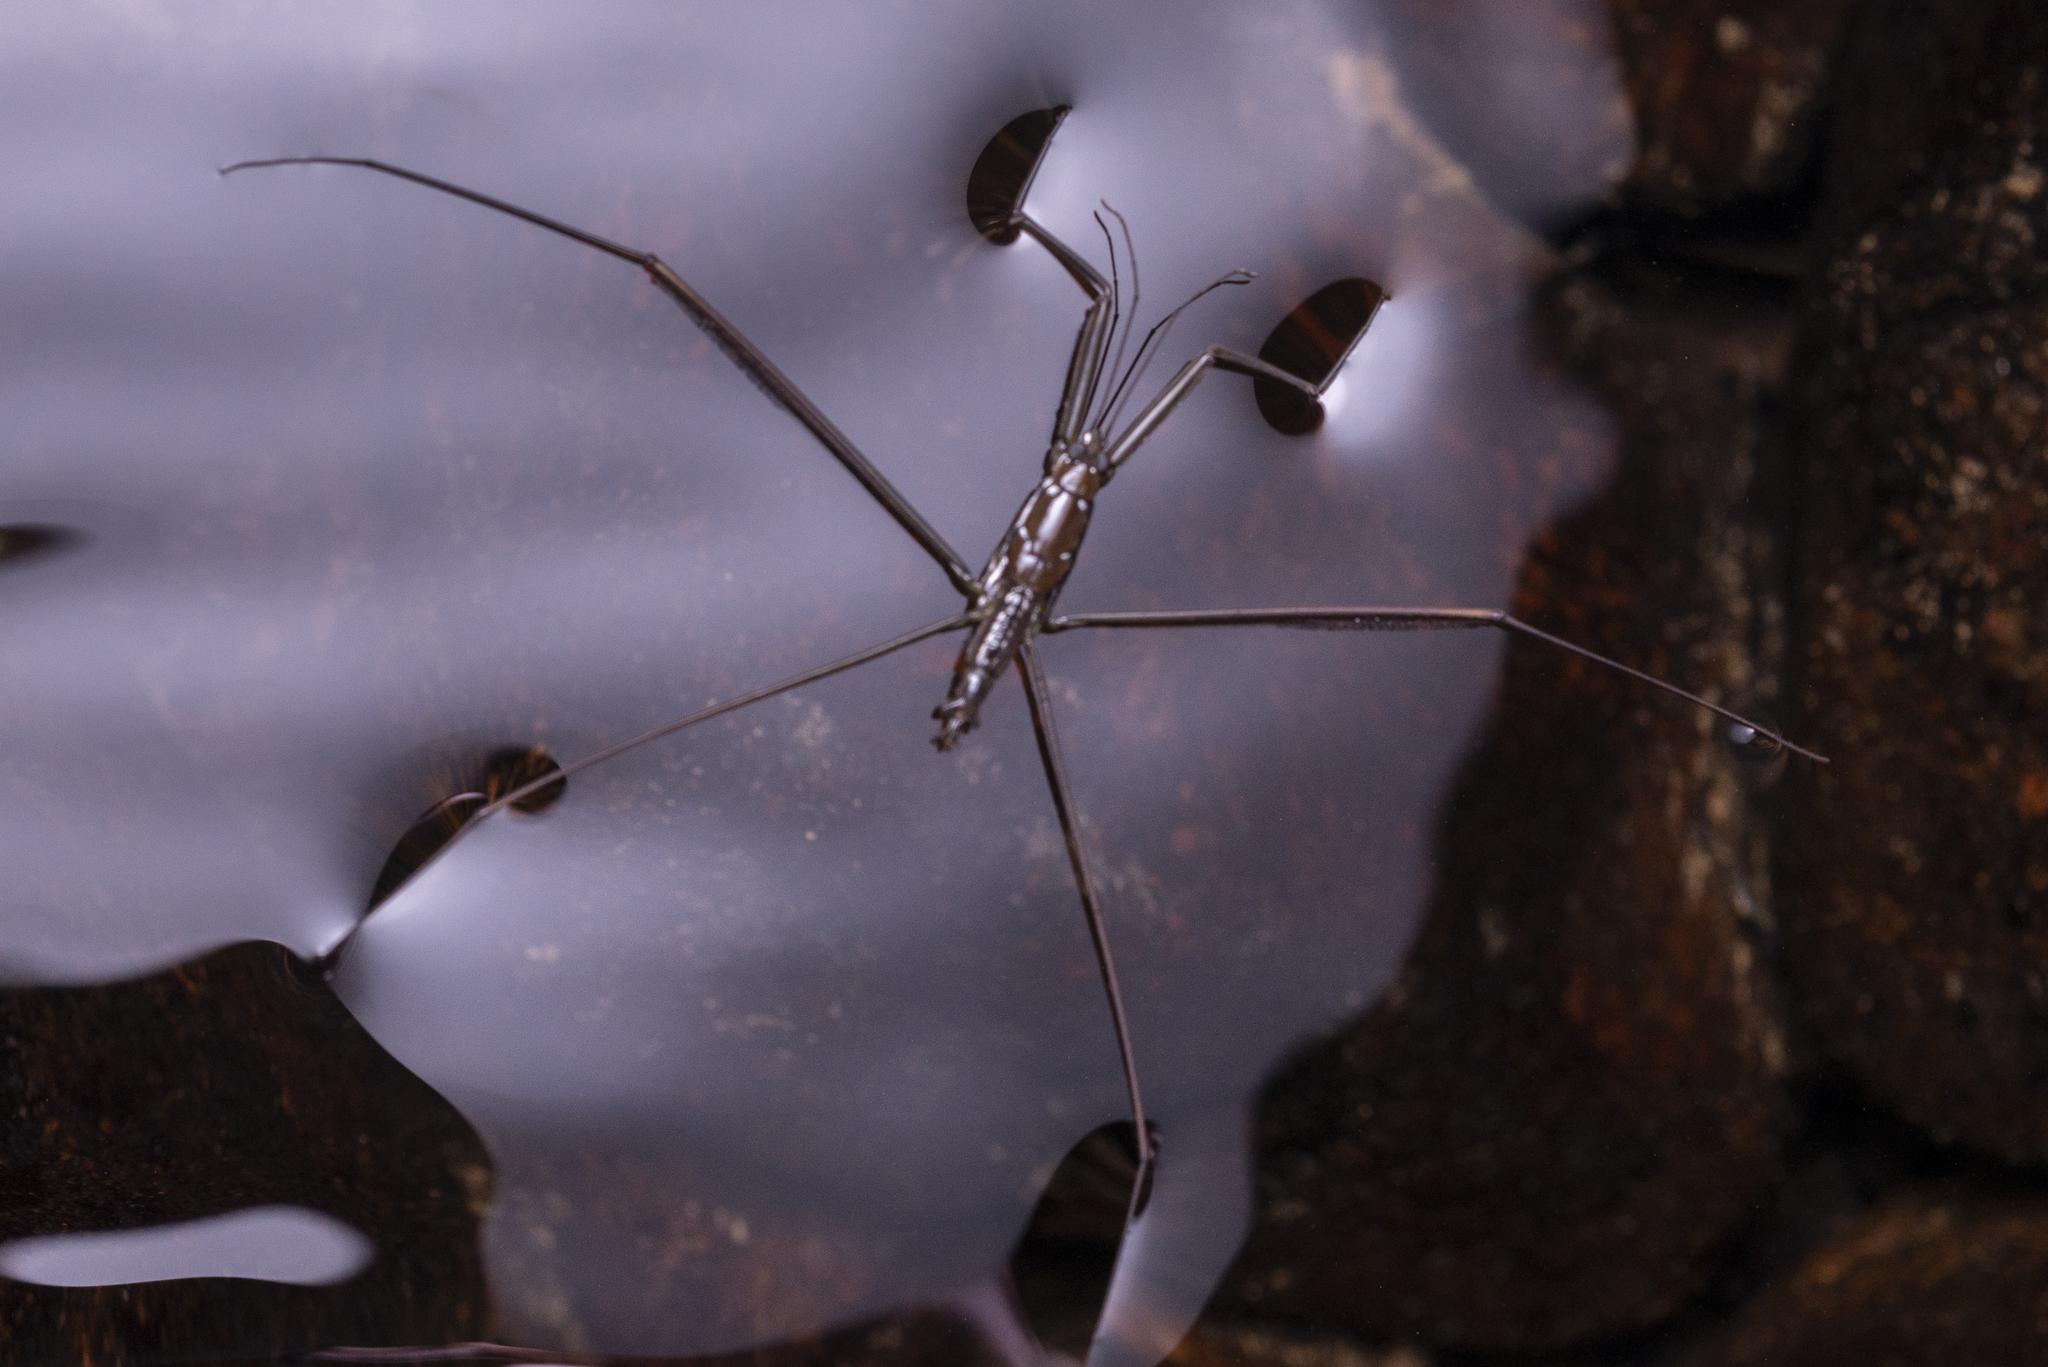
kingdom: Animalia
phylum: Arthropoda
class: Insecta
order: Hemiptera
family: Gerridae
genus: Ptilomera
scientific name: Ptilomera tigrina
